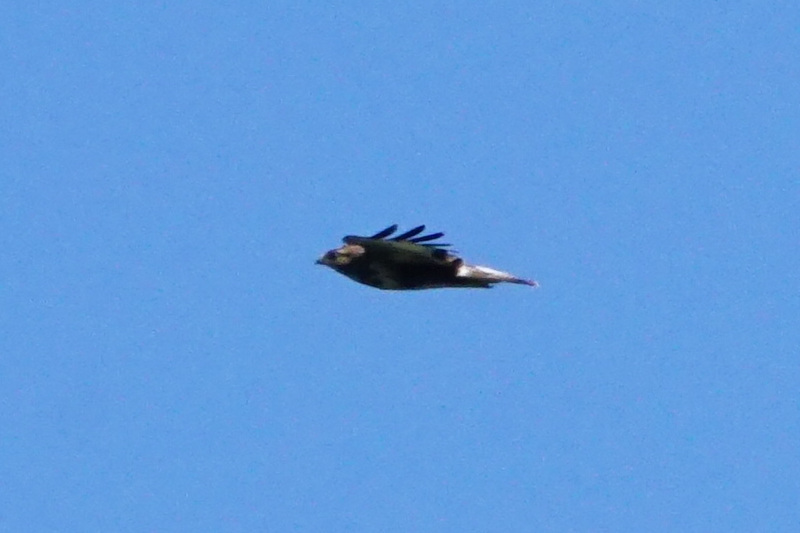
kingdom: Animalia
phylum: Chordata
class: Aves
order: Accipitriformes
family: Accipitridae
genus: Buteo
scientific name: Buteo buteo
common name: Common buzzard
